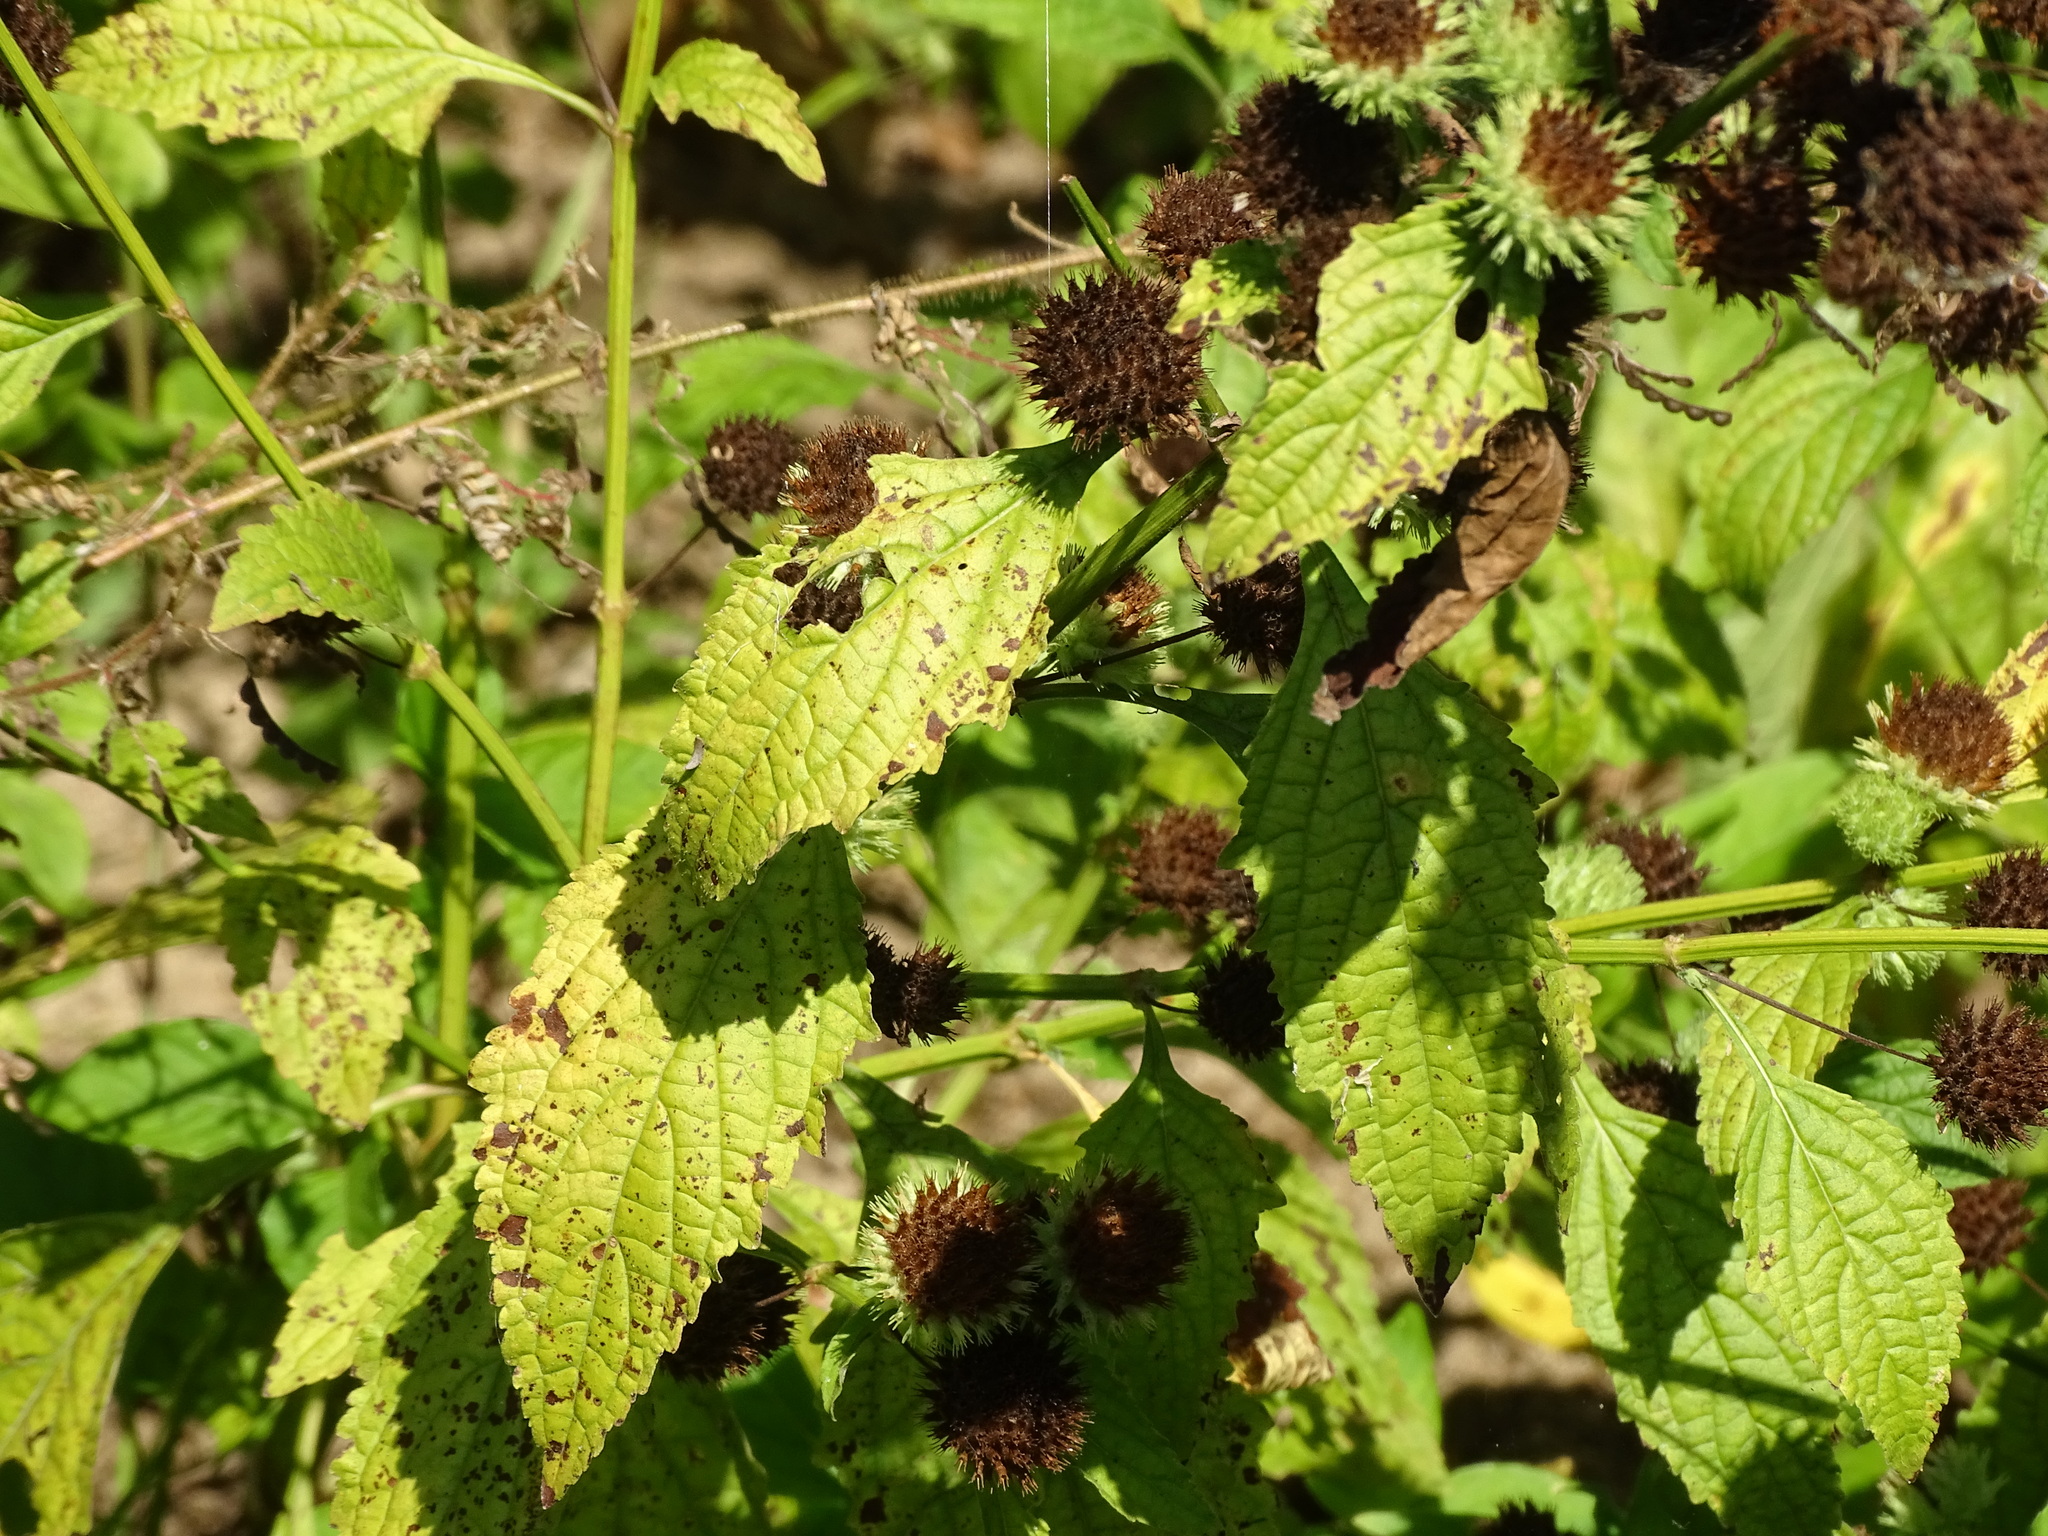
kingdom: Plantae
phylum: Tracheophyta
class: Magnoliopsida
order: Lamiales
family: Lamiaceae
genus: Hyptis
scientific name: Hyptis capitata
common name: False ironwort
